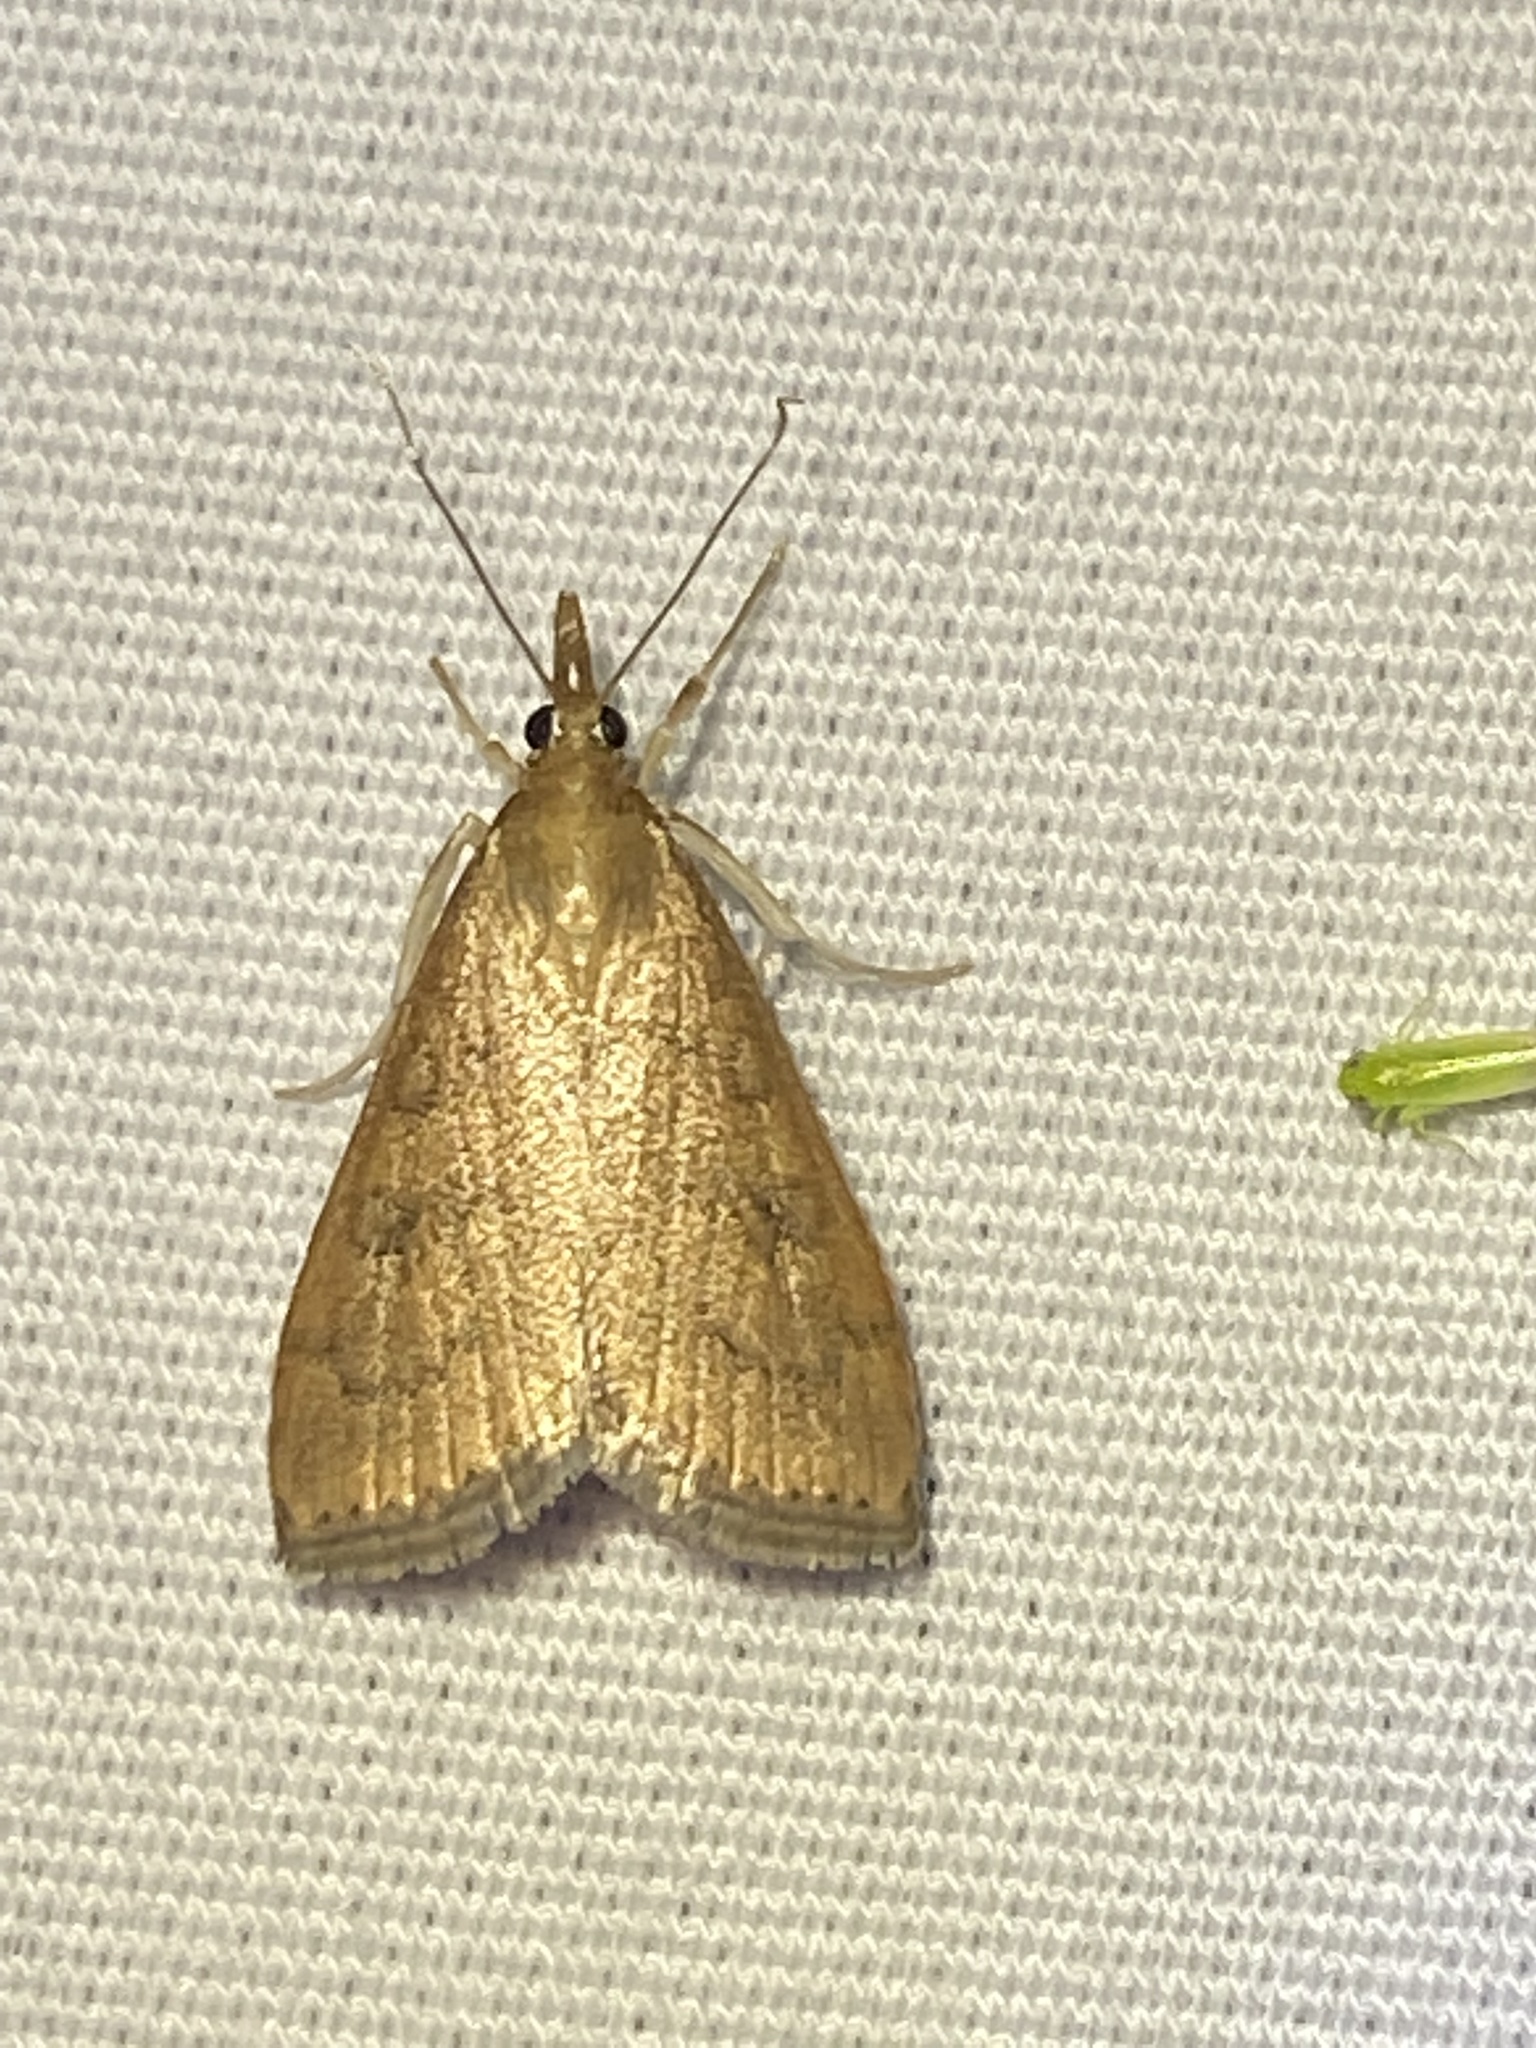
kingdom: Animalia
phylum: Arthropoda
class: Insecta
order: Lepidoptera
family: Crambidae
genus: Udea
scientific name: Udea rubigalis
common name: Celery leaftier moth
